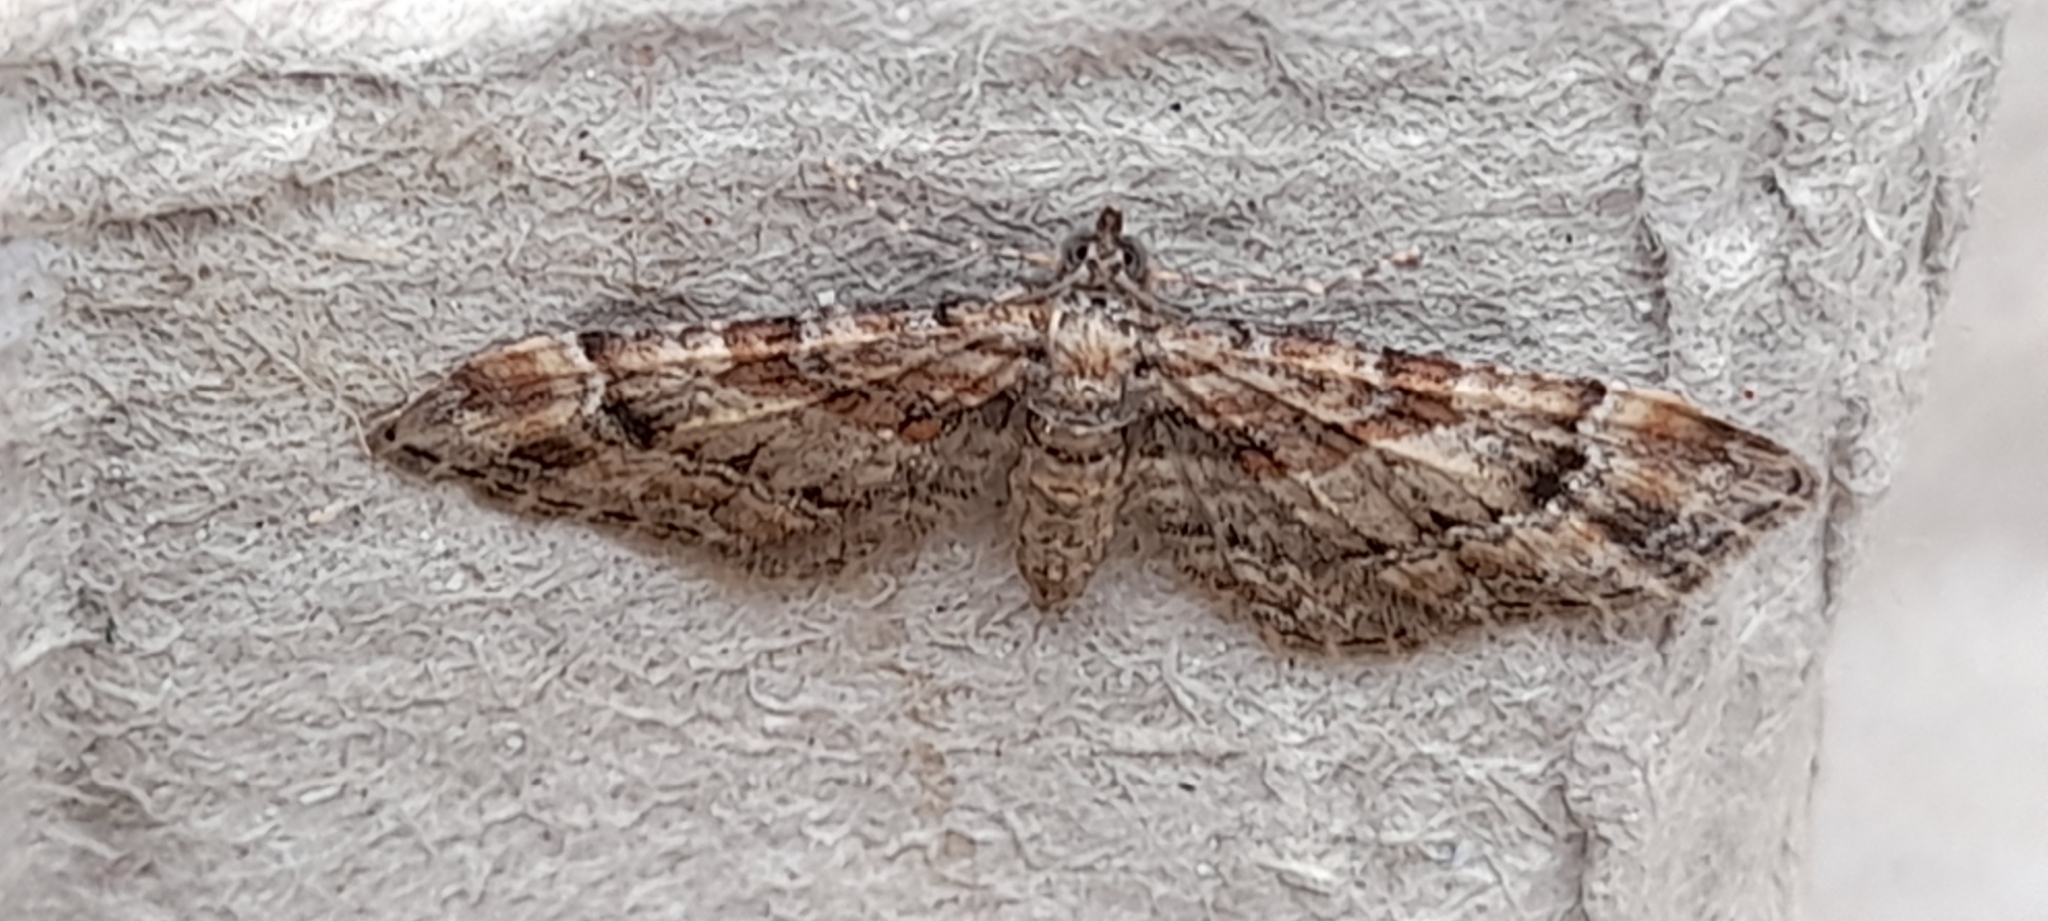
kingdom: Animalia
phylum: Arthropoda
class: Insecta
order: Lepidoptera
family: Geometridae
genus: Gymnoscelis
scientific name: Gymnoscelis rufifasciata
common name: Double-striped pug
